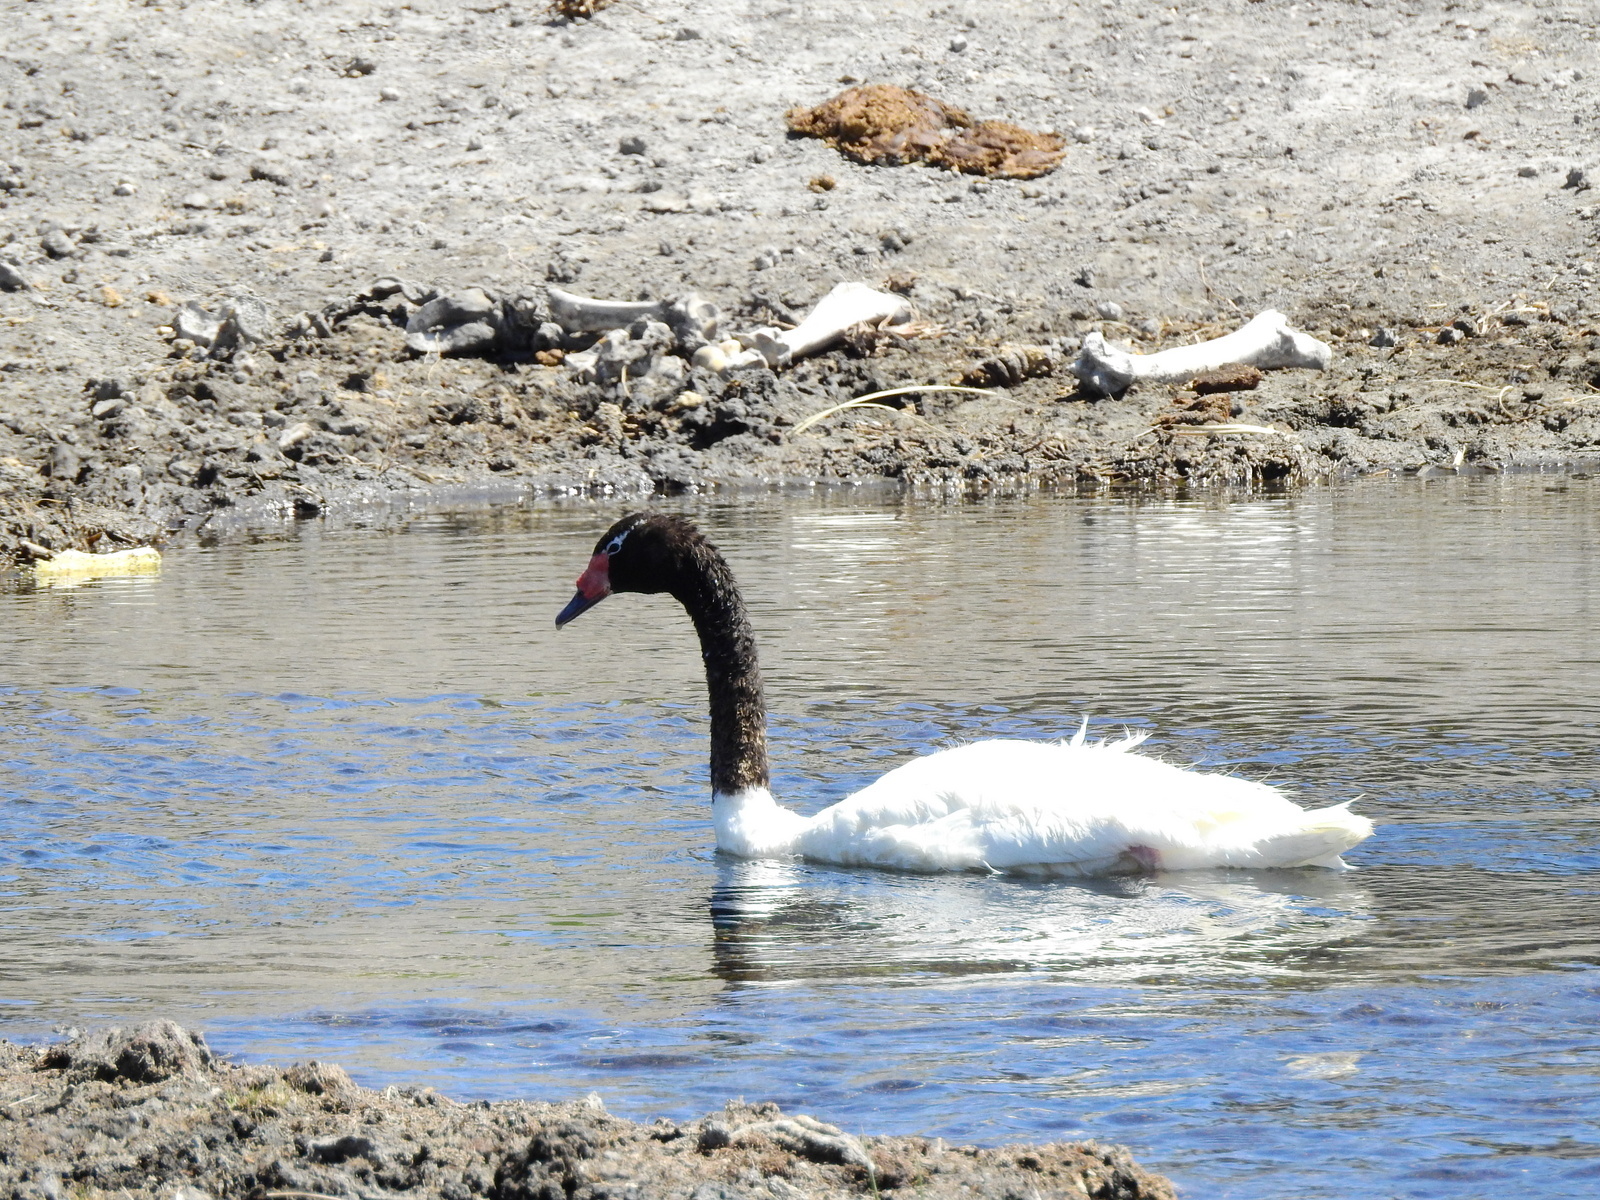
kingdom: Animalia
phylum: Chordata
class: Aves
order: Anseriformes
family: Anatidae
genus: Cygnus
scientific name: Cygnus melancoryphus
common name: Black-necked swan
